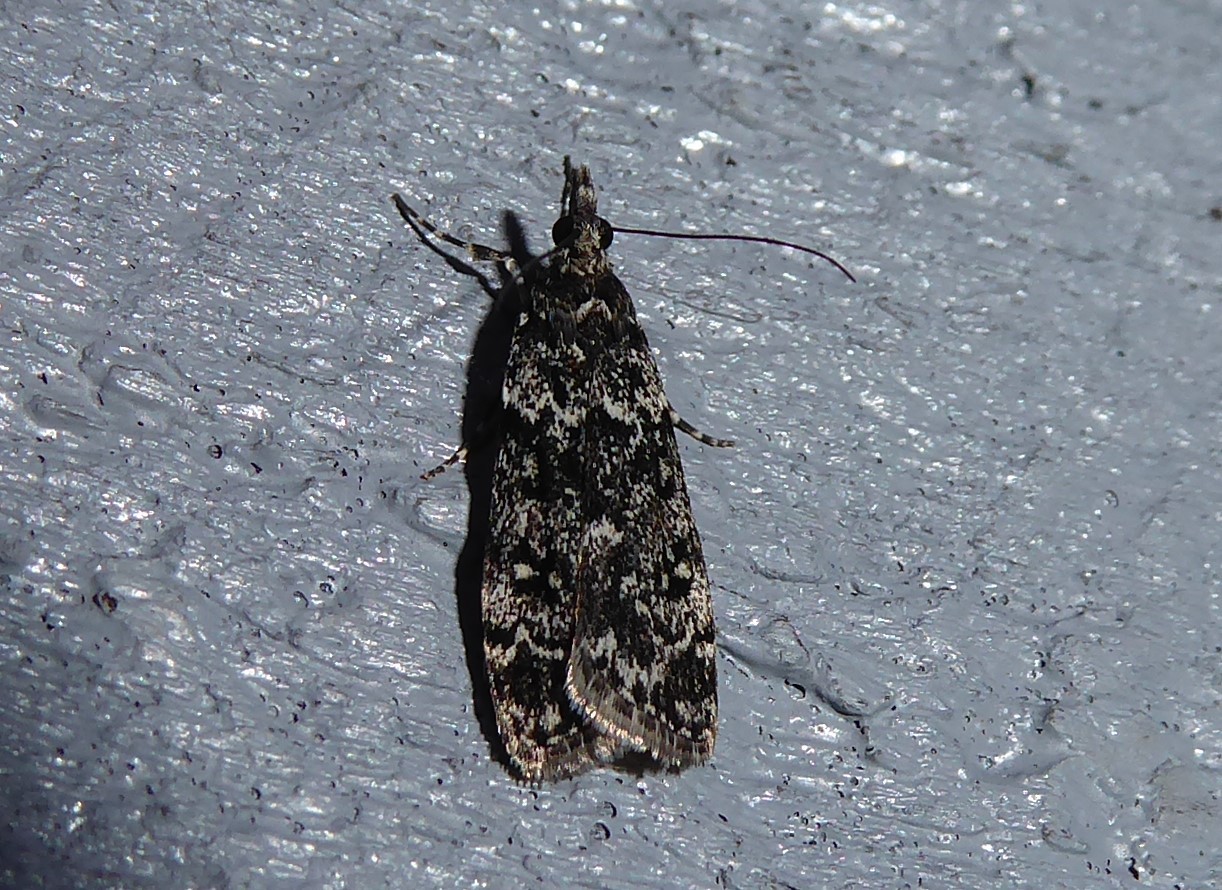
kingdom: Animalia
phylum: Arthropoda
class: Insecta
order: Lepidoptera
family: Crambidae
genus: Eudonia
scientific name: Eudonia philerga
